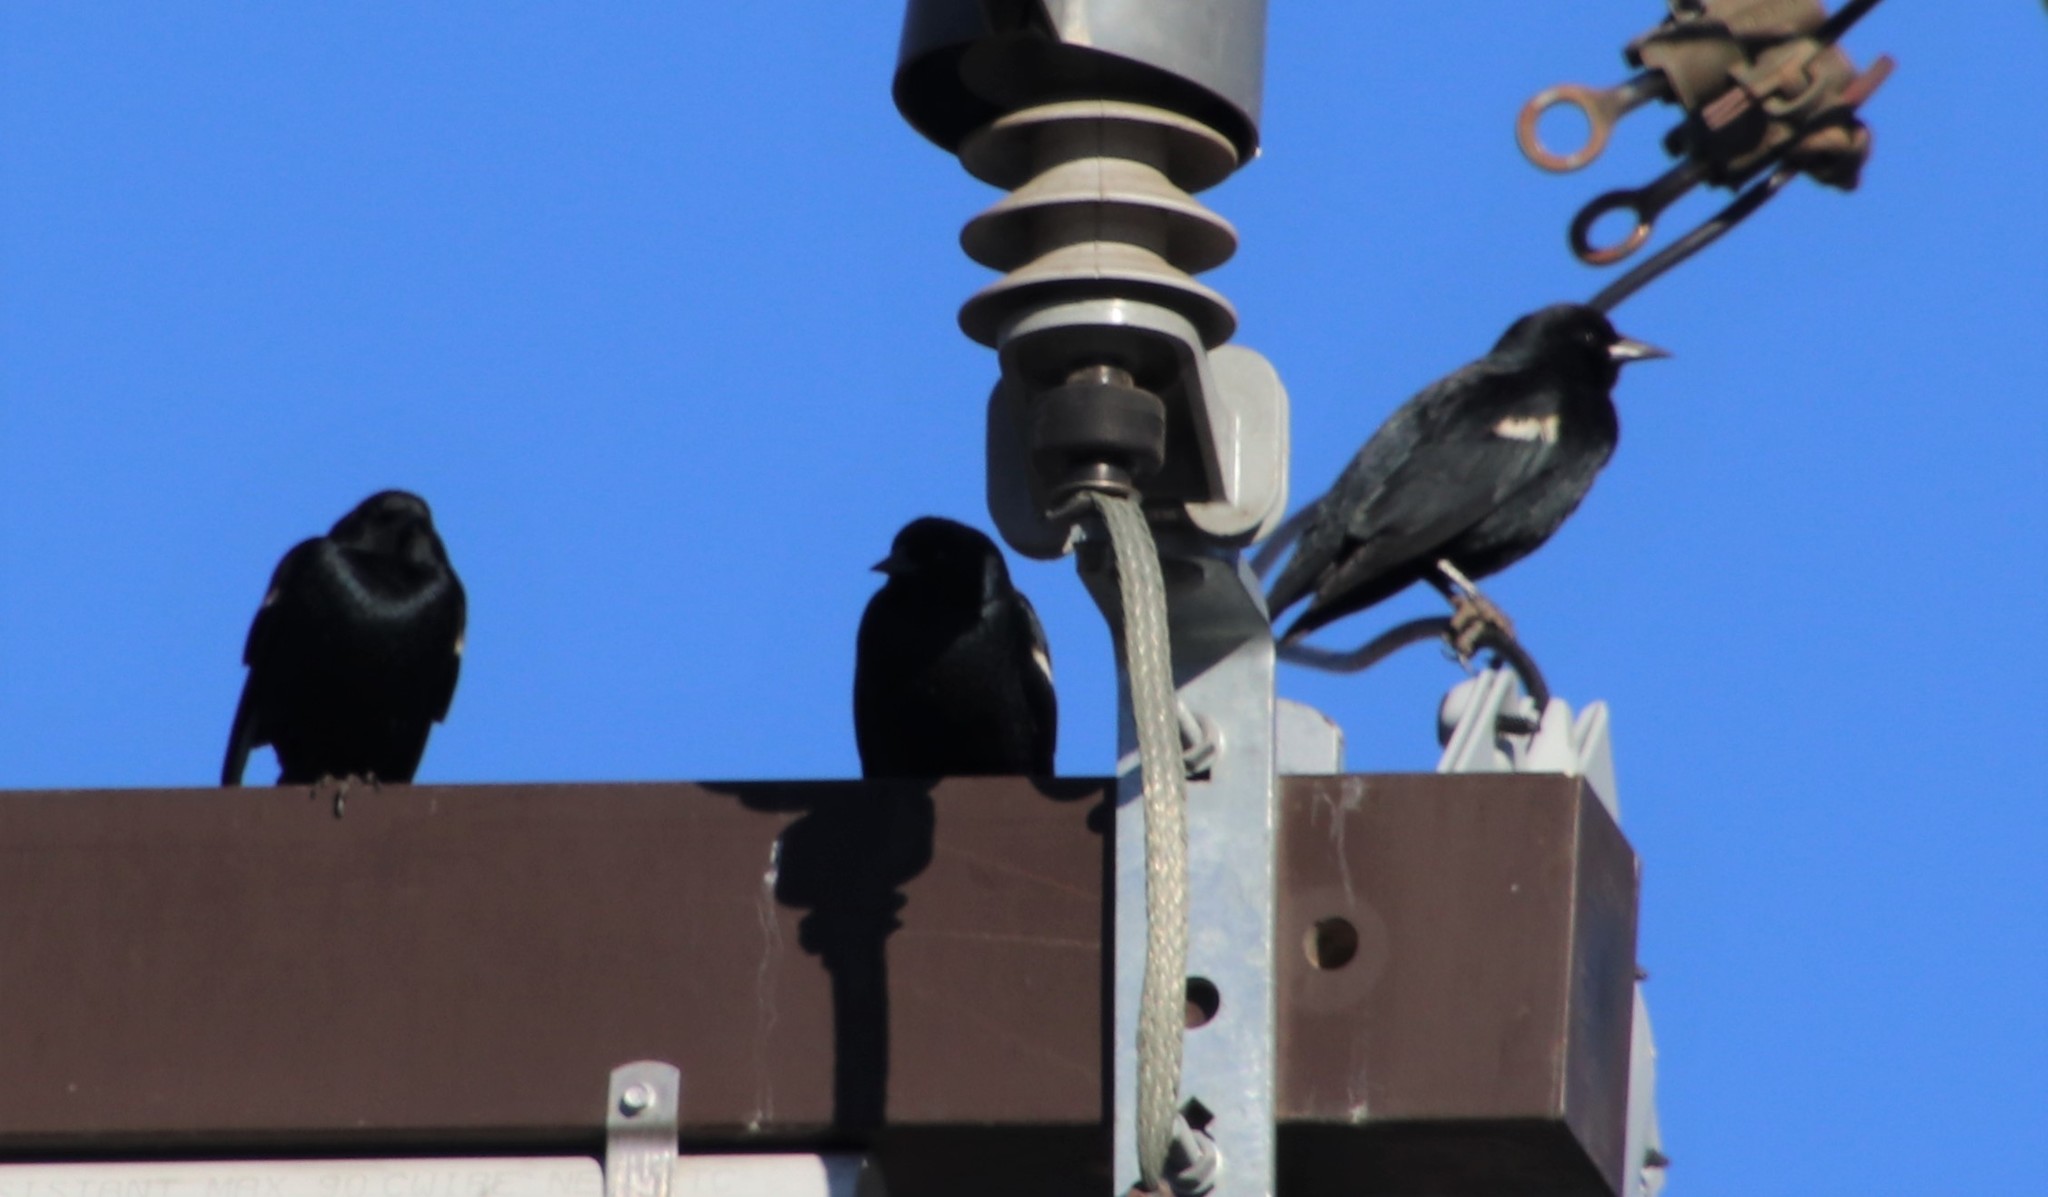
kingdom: Animalia
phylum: Chordata
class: Aves
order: Passeriformes
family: Icteridae
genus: Agelaius
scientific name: Agelaius tricolor
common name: Tricolored blackbird
